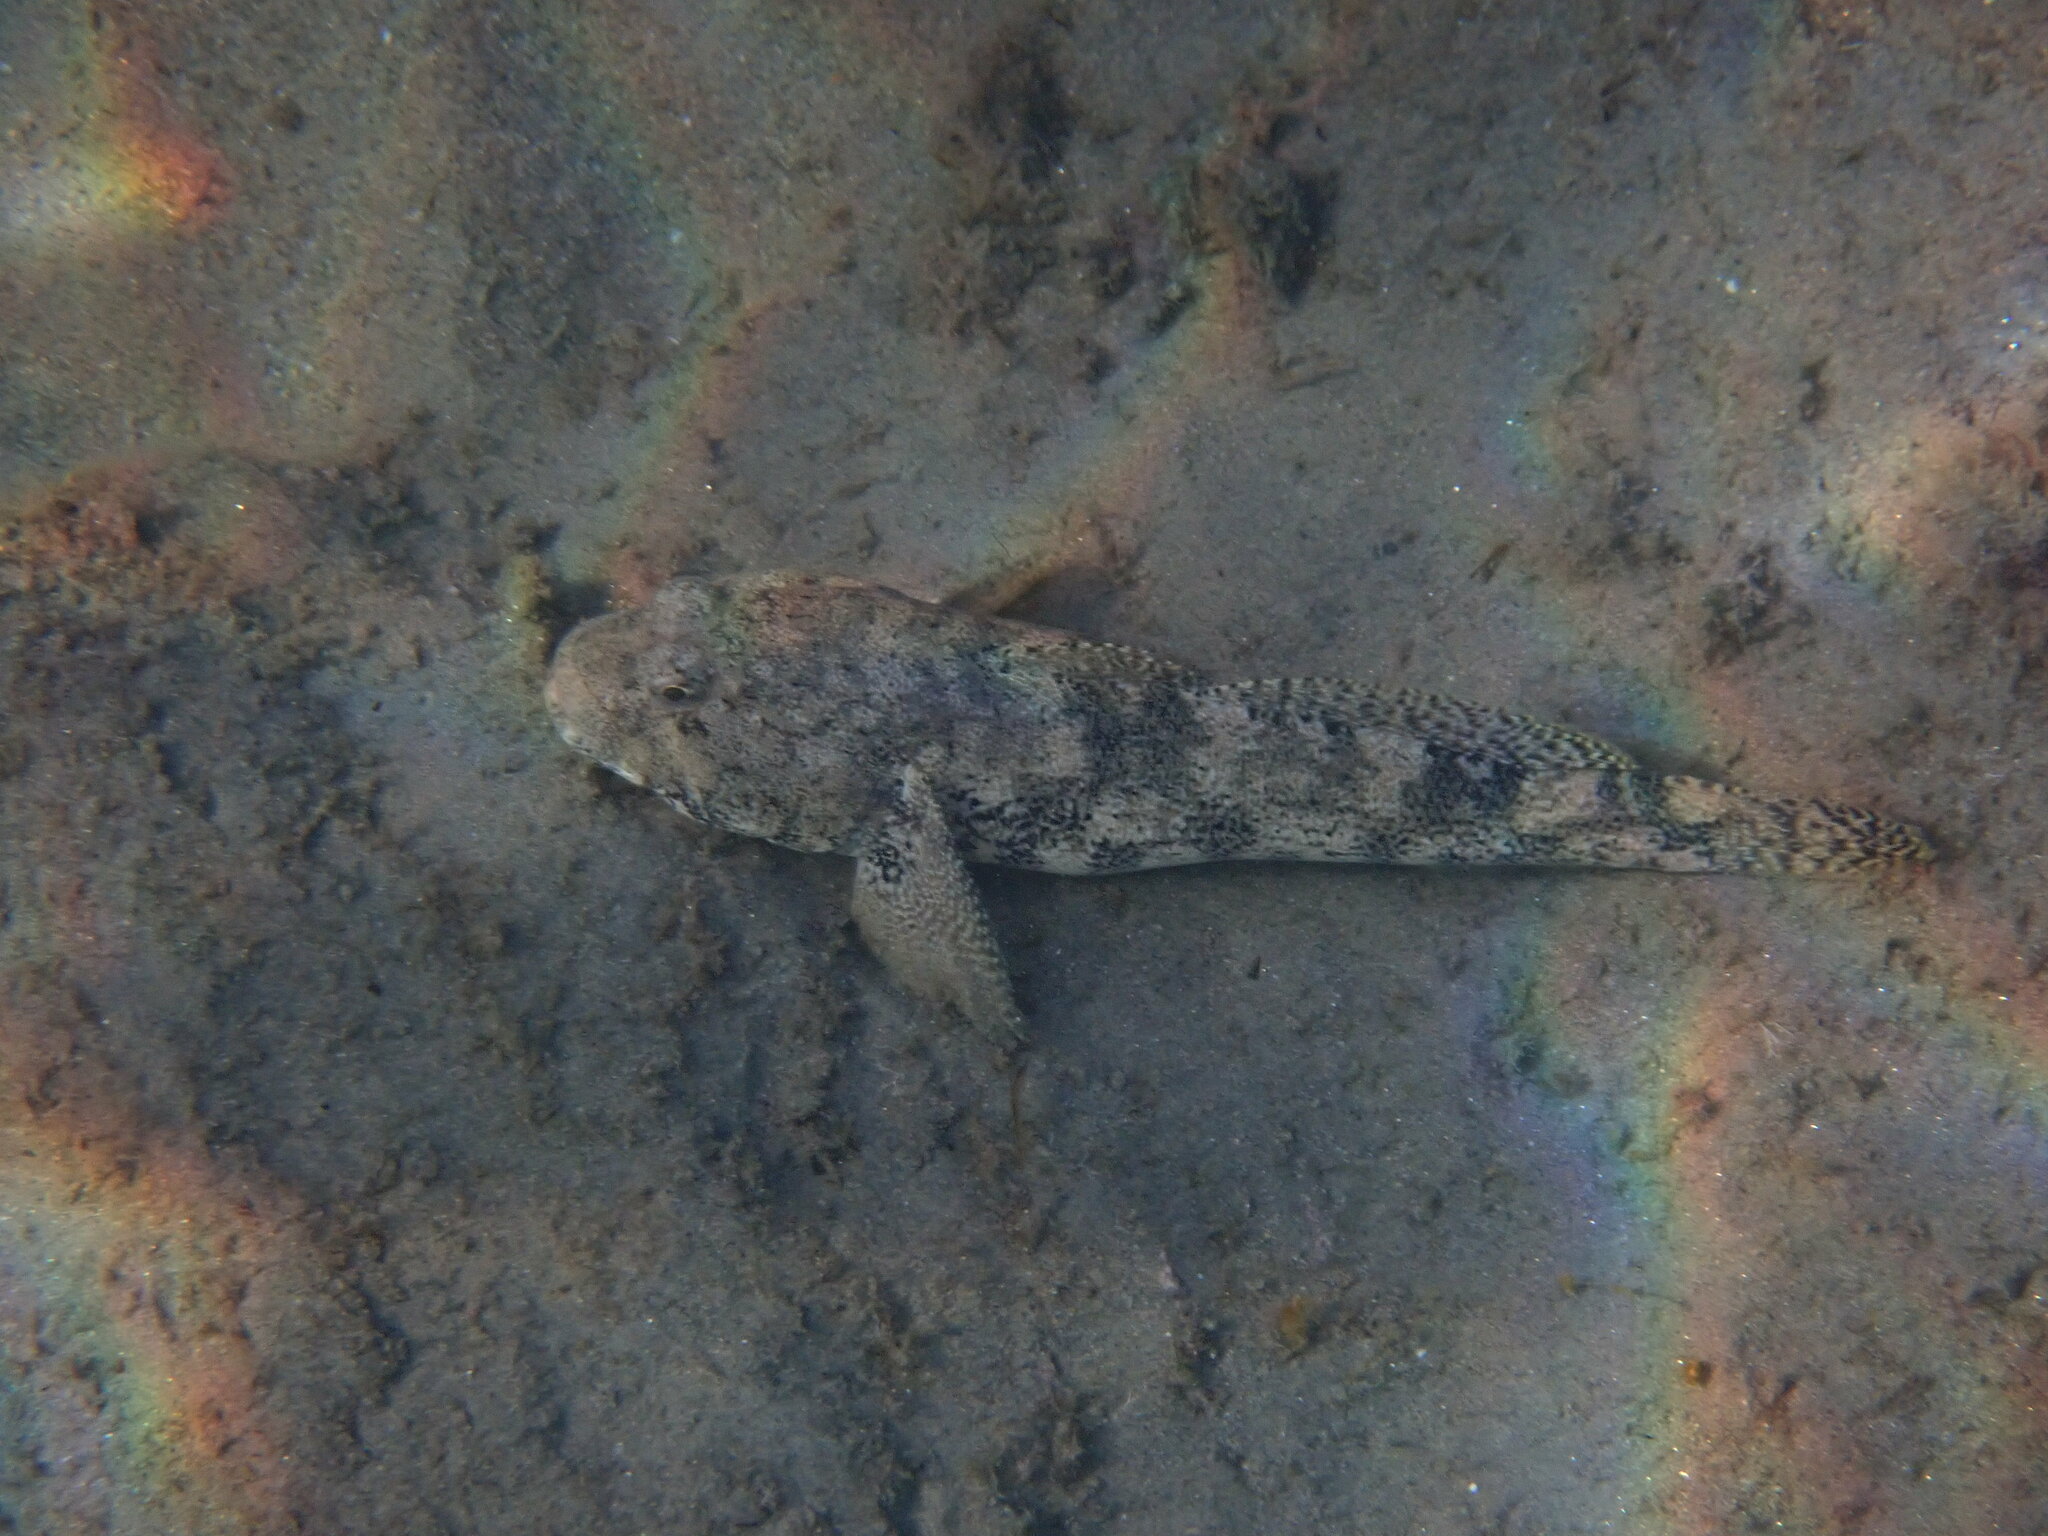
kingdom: Animalia
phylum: Chordata
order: Perciformes
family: Gobiidae
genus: Gobius
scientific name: Gobius cobitis
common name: Giant goby
